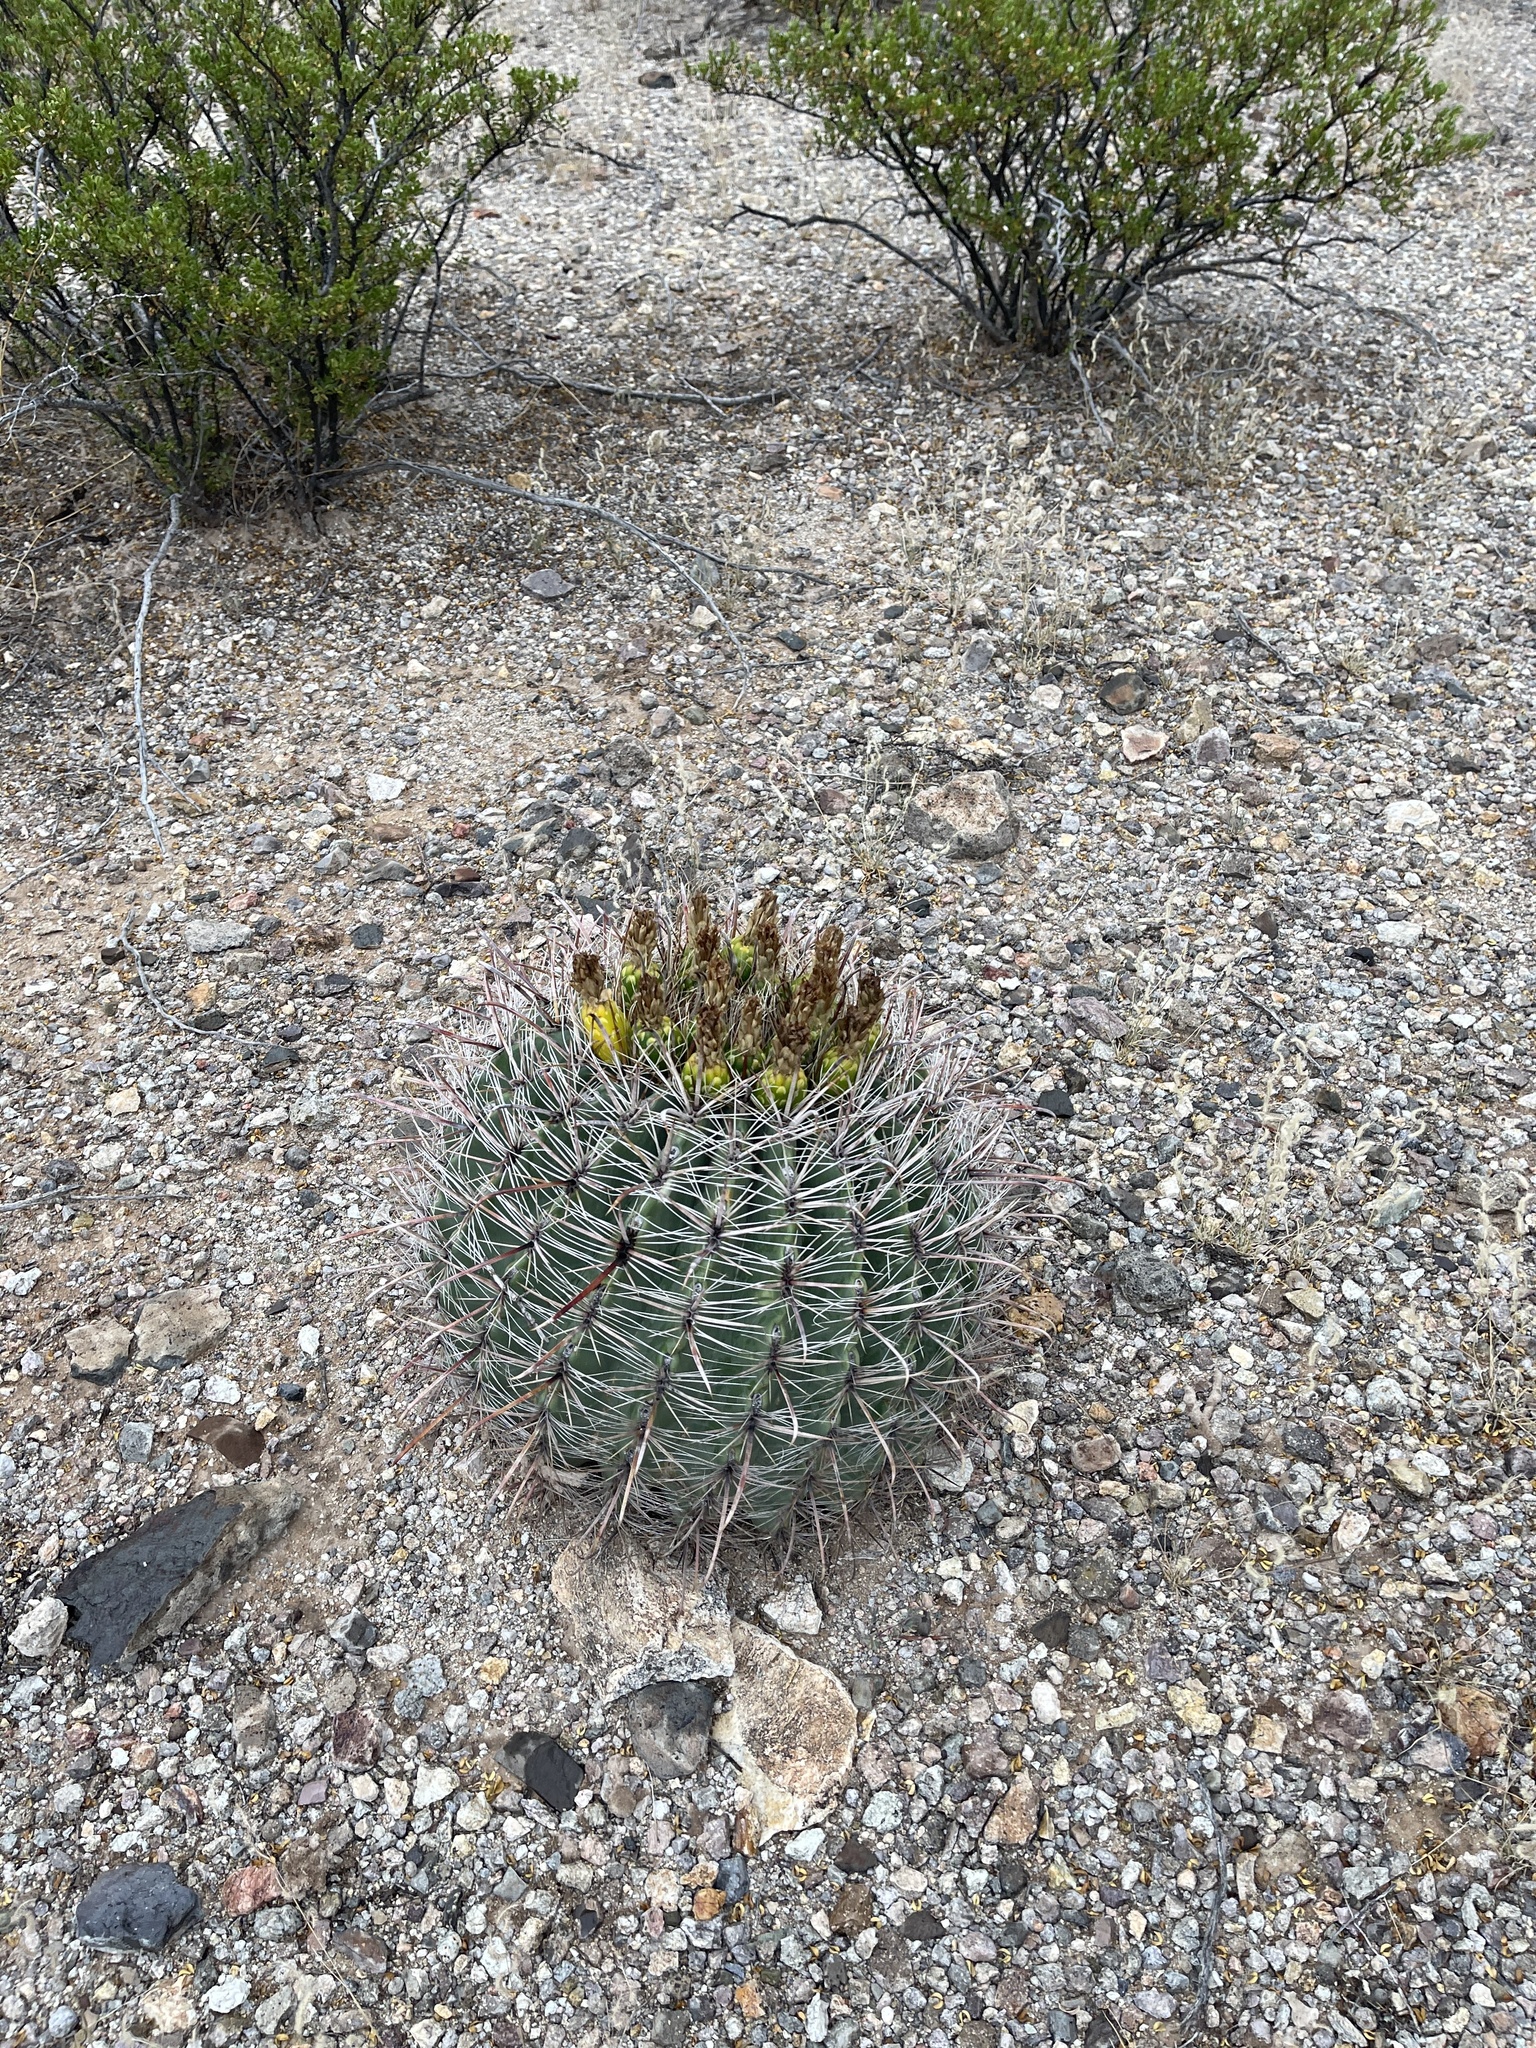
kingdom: Plantae
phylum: Tracheophyta
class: Magnoliopsida
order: Caryophyllales
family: Cactaceae
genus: Ferocactus
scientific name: Ferocactus wislizeni
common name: Candy barrel cactus
